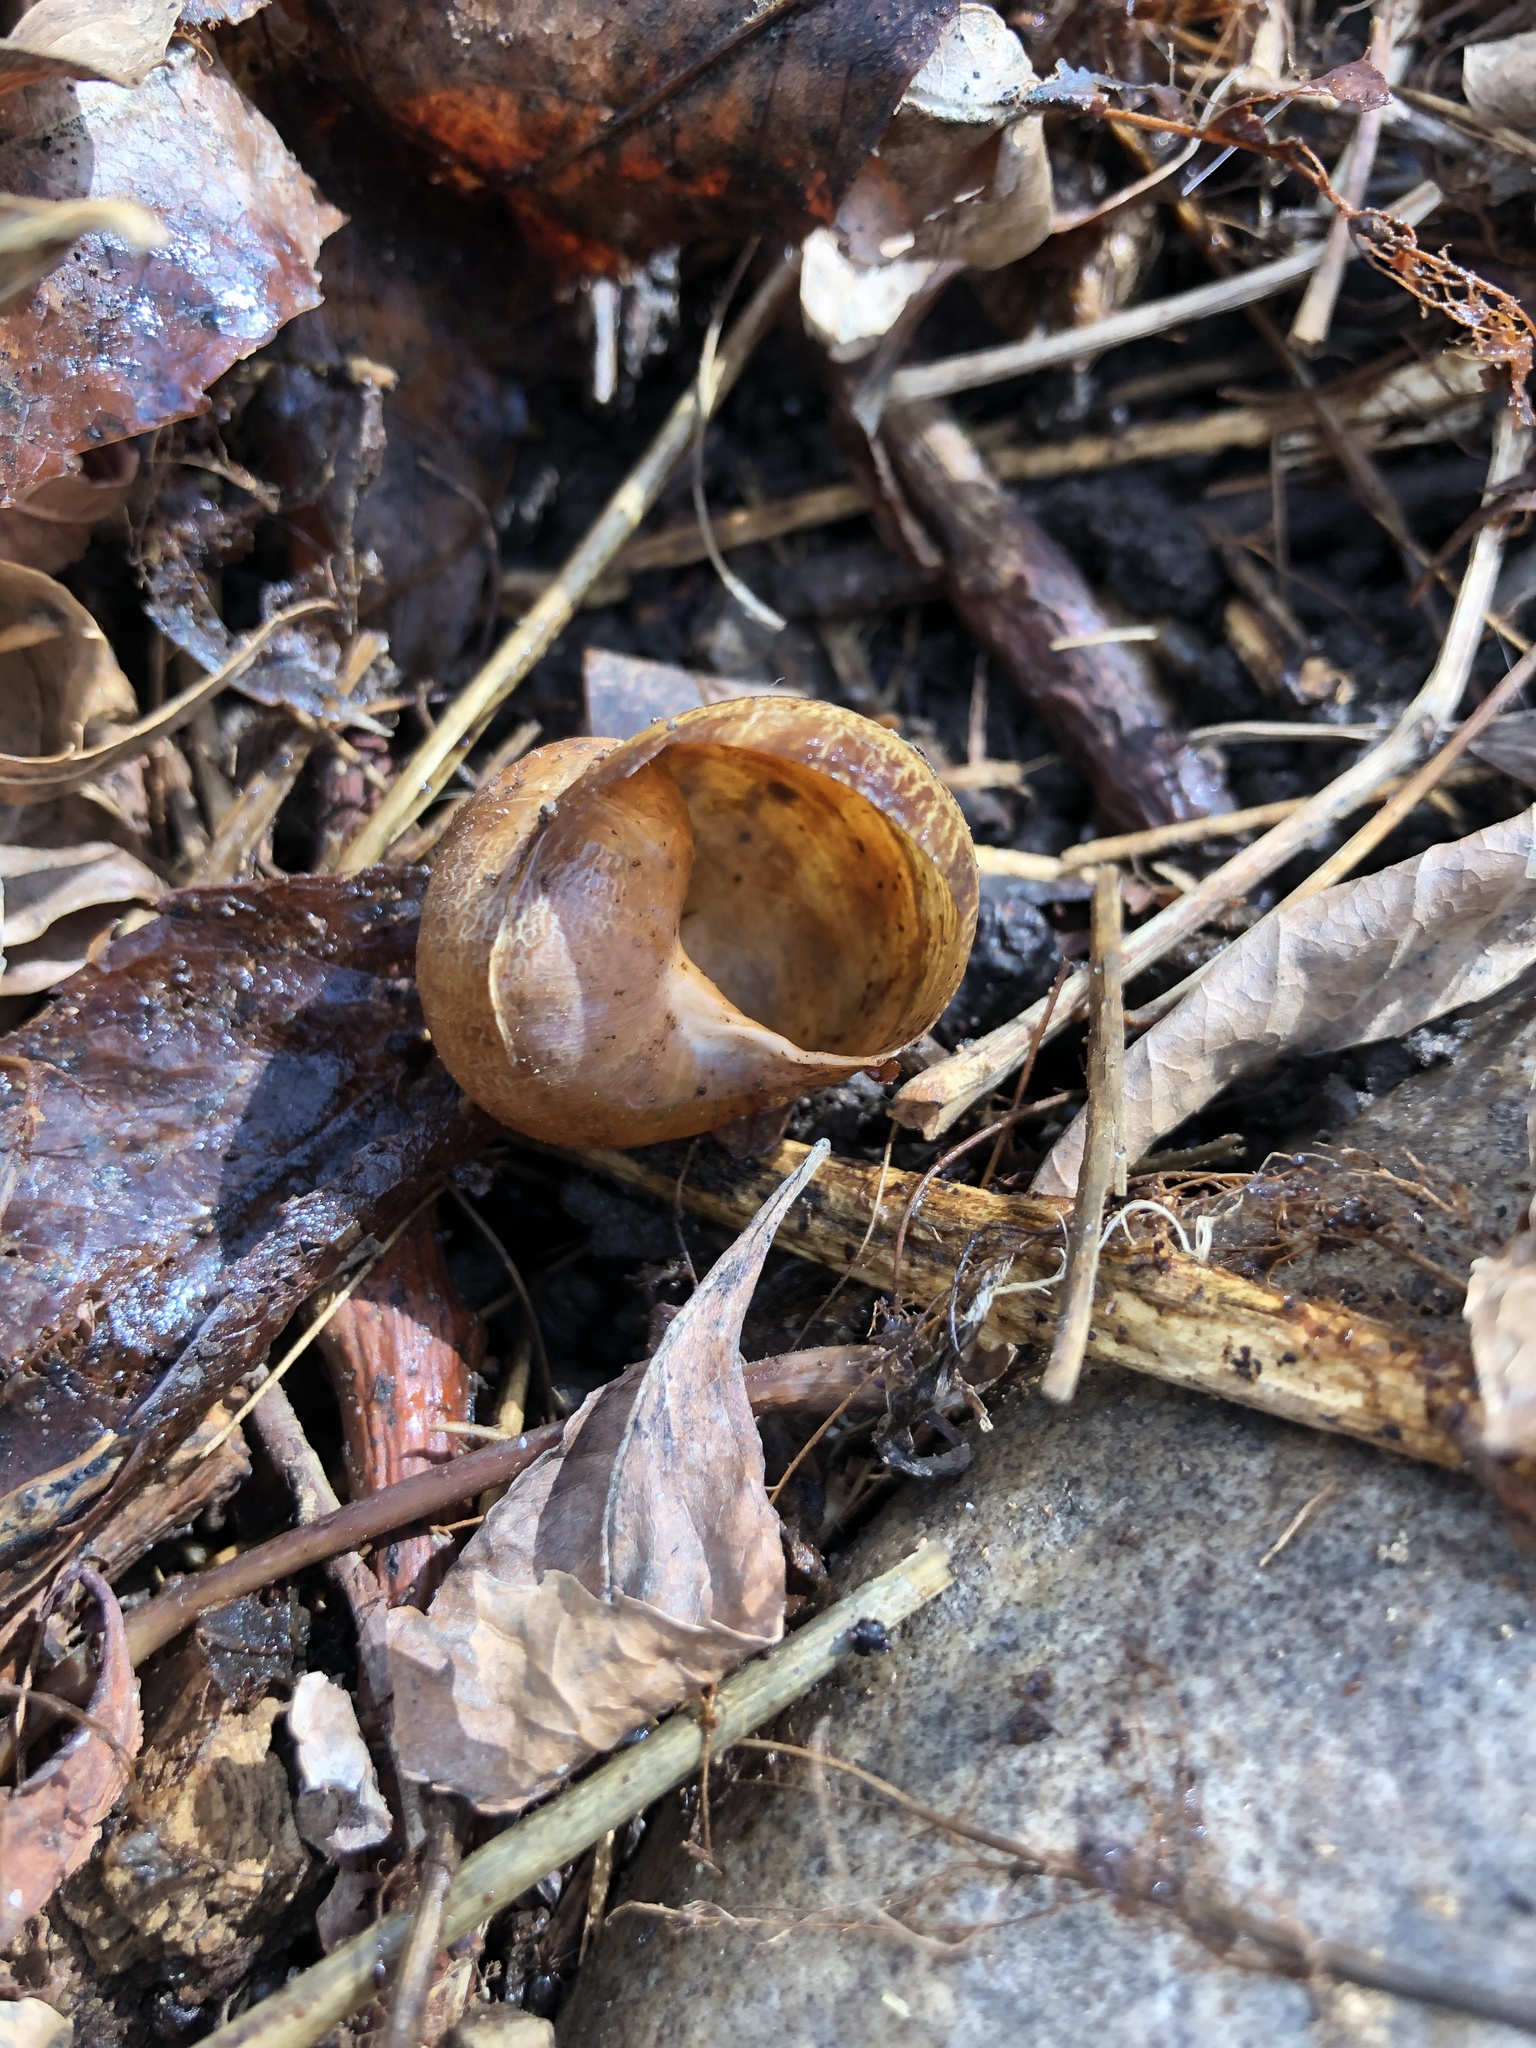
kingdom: Animalia
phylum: Mollusca
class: Gastropoda
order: Stylommatophora
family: Helicidae
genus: Cornu
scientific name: Cornu aspersum
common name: Brown garden snail
